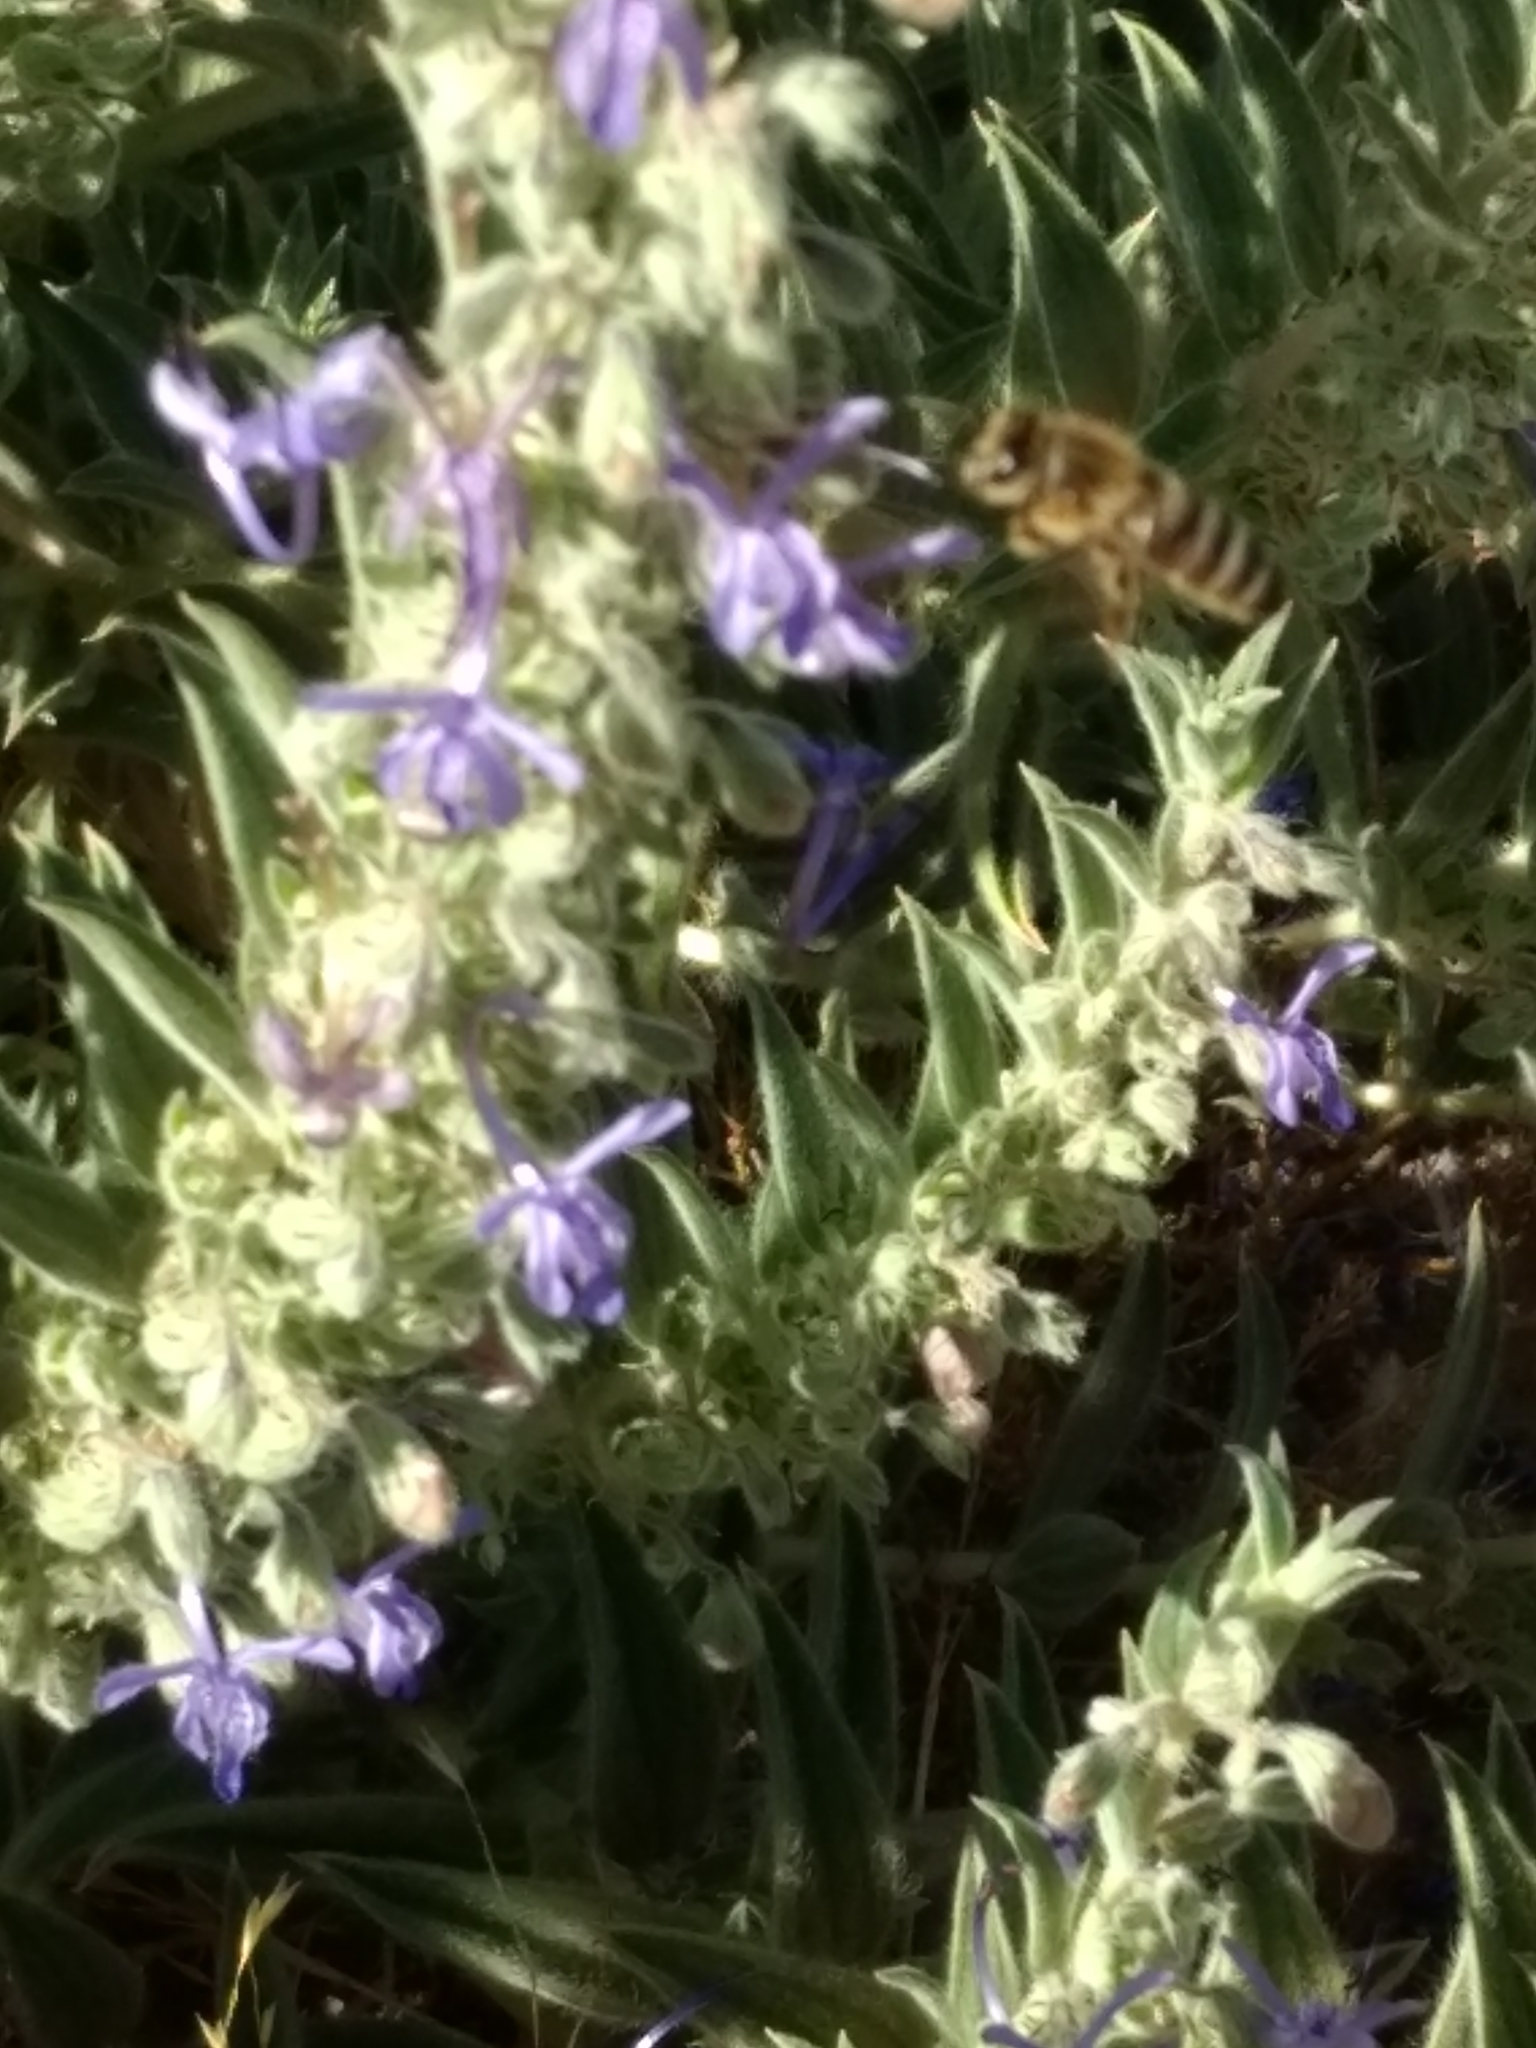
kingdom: Animalia
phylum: Arthropoda
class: Insecta
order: Hymenoptera
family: Apidae
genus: Apis
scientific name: Apis mellifera
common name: Honey bee
